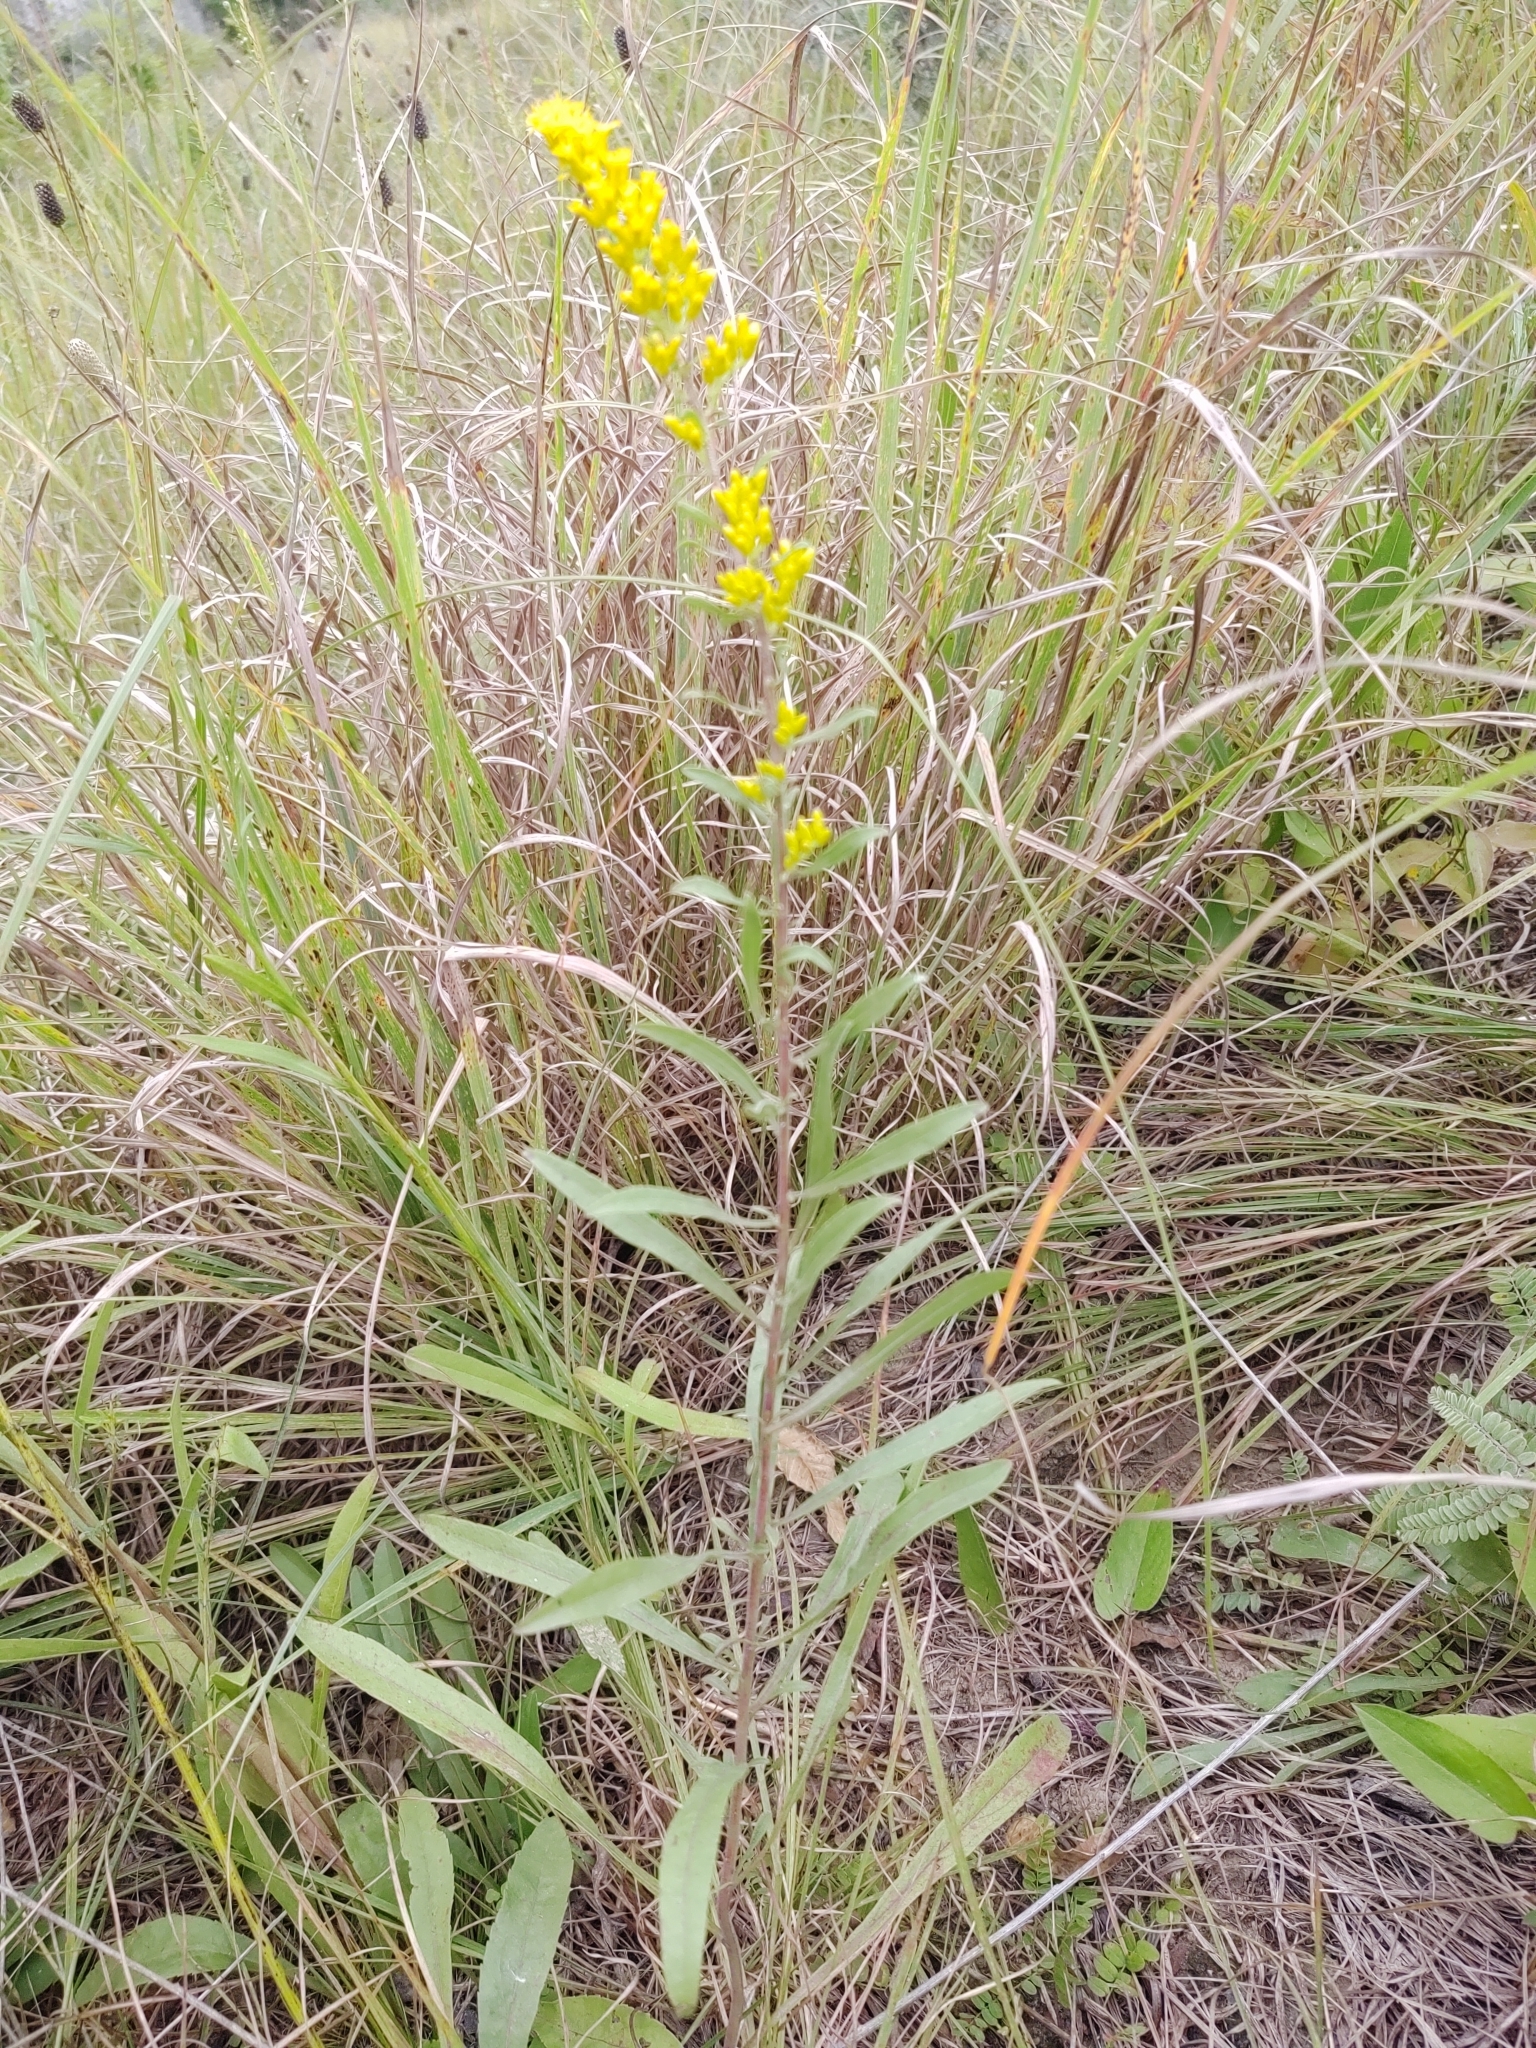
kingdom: Plantae
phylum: Tracheophyta
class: Magnoliopsida
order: Asterales
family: Asteraceae
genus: Solidago
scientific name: Solidago nemoralis
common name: Grey goldenrod
